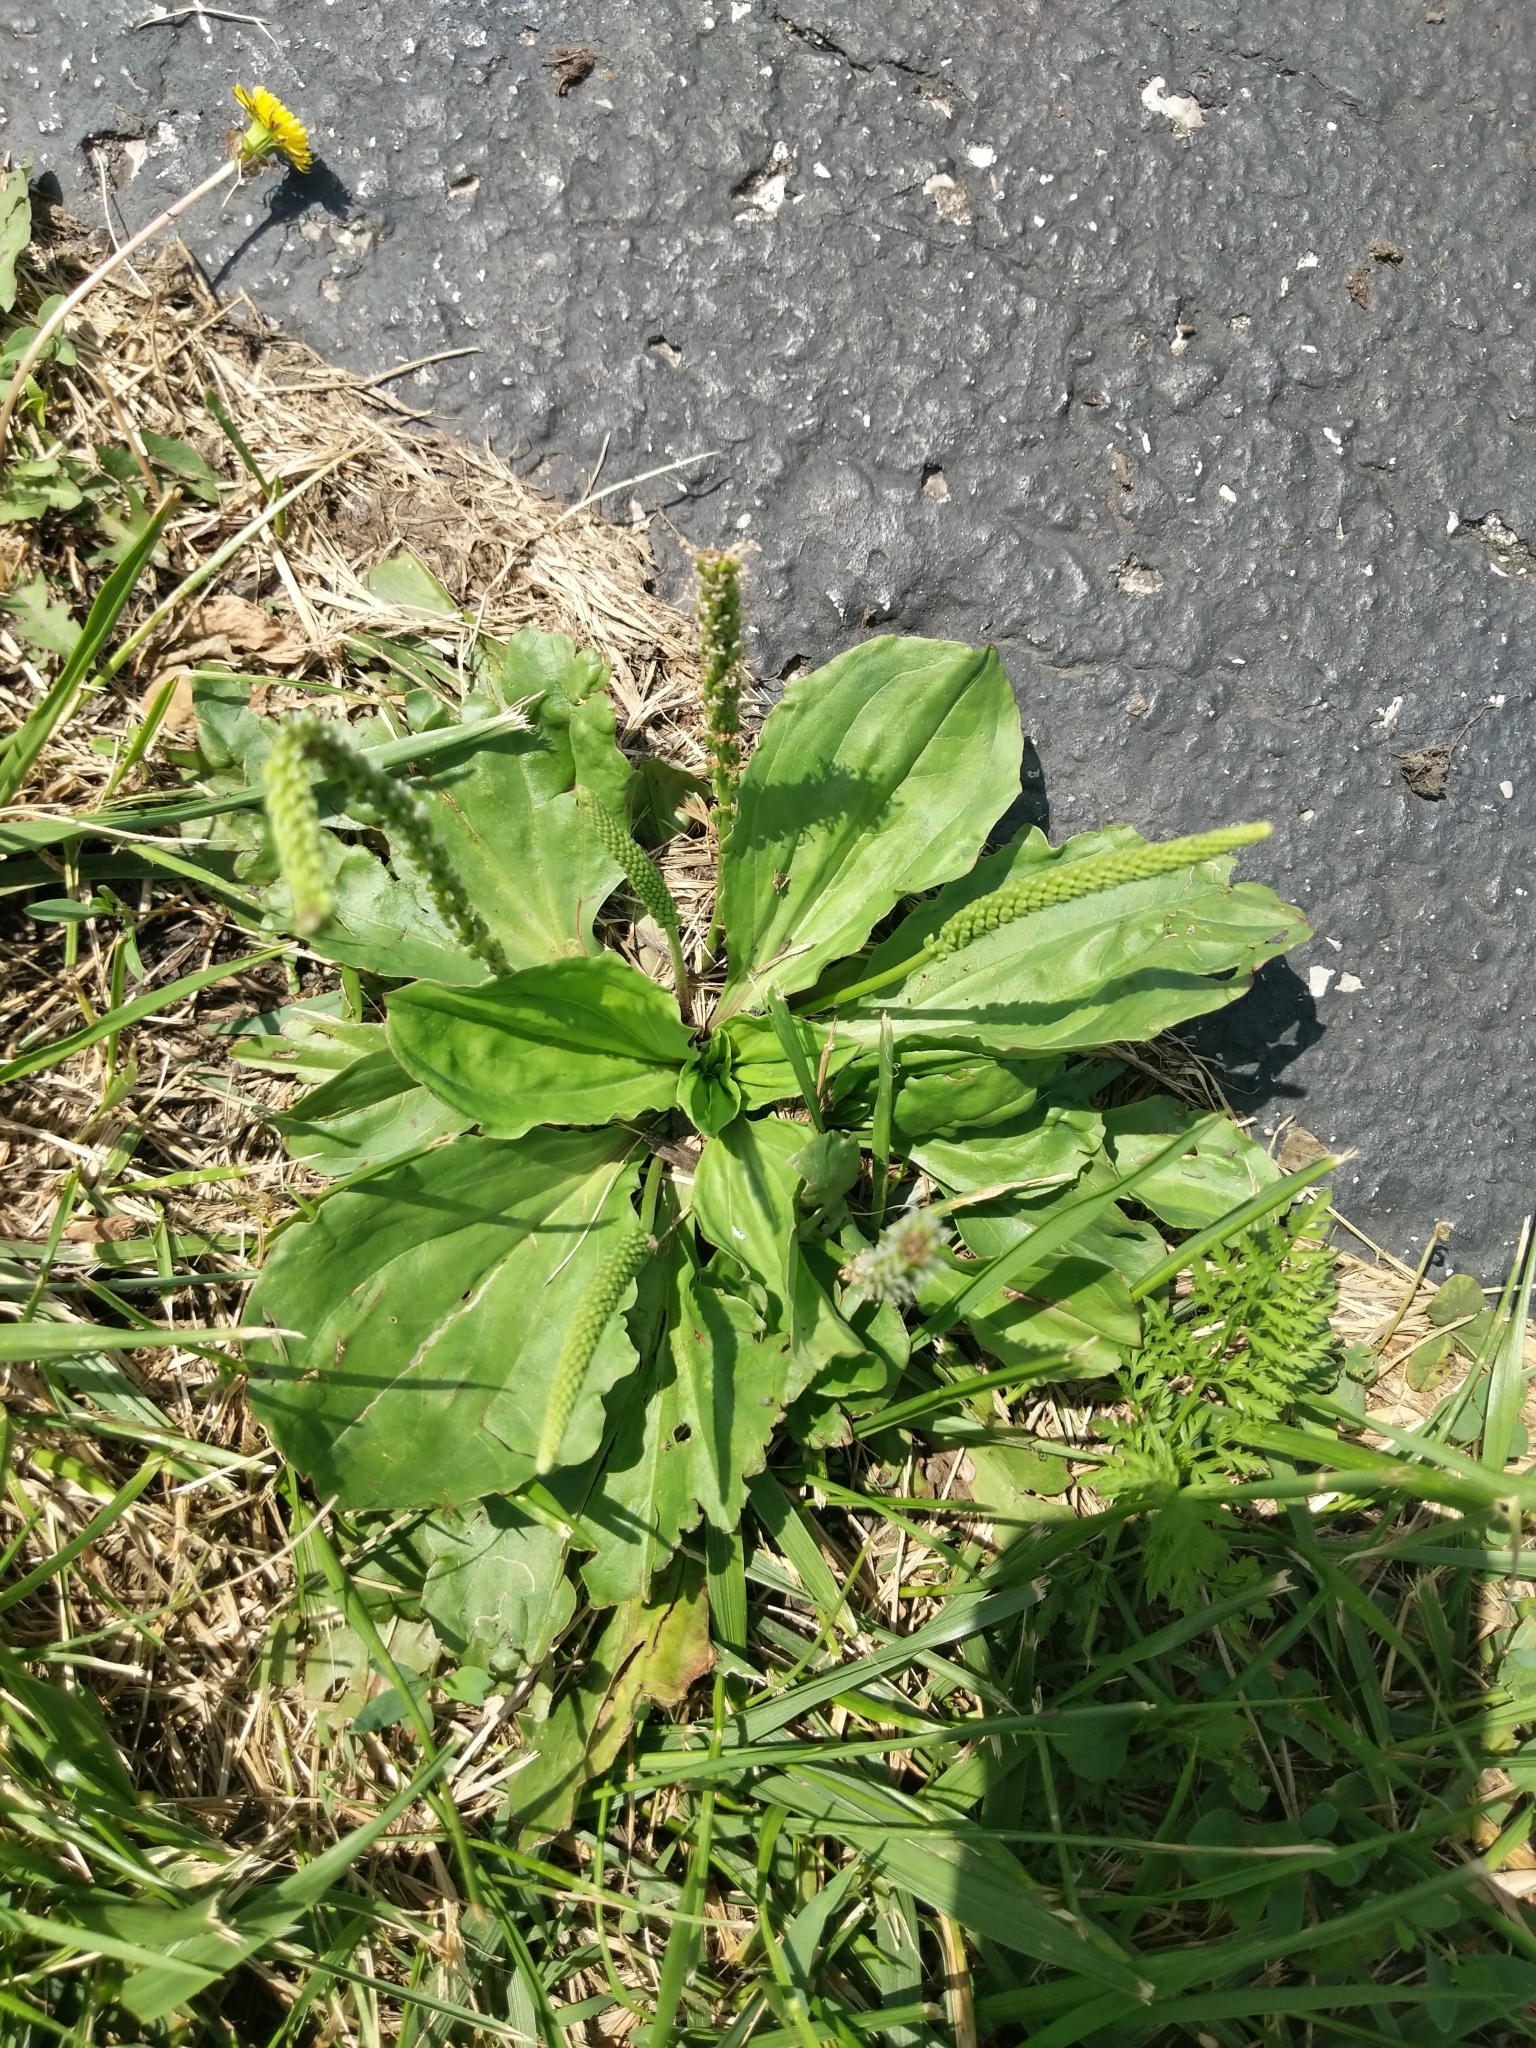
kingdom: Plantae
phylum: Tracheophyta
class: Magnoliopsida
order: Lamiales
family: Plantaginaceae
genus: Plantago
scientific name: Plantago rugelii
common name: American plantain
